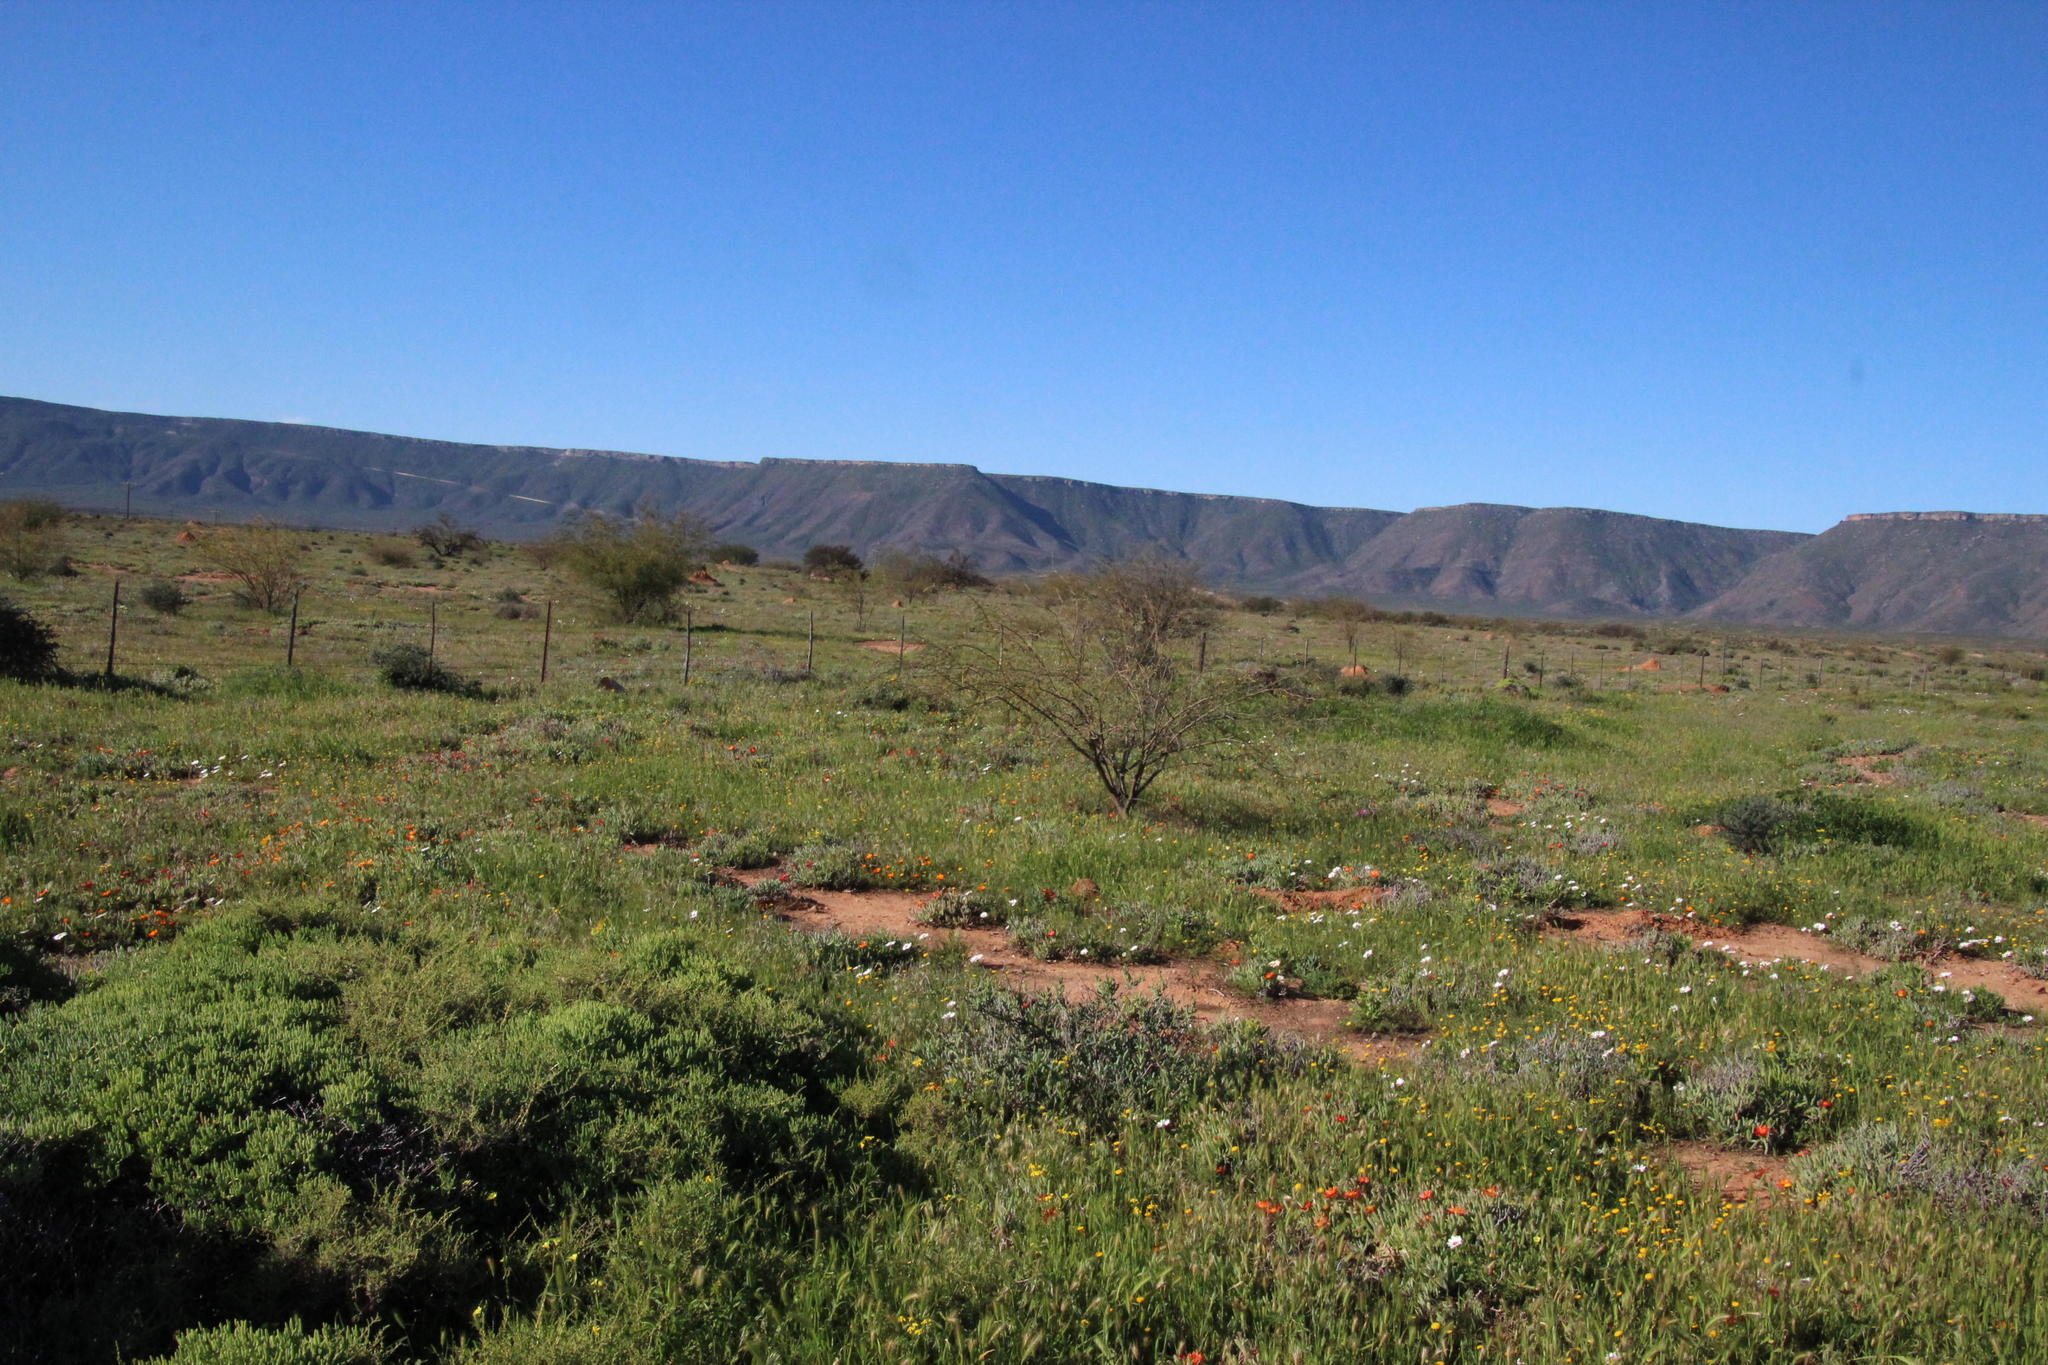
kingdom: Plantae
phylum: Tracheophyta
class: Magnoliopsida
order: Fabales
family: Fabaceae
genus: Prosopis
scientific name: Prosopis glandulosa
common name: Honey mesquite
